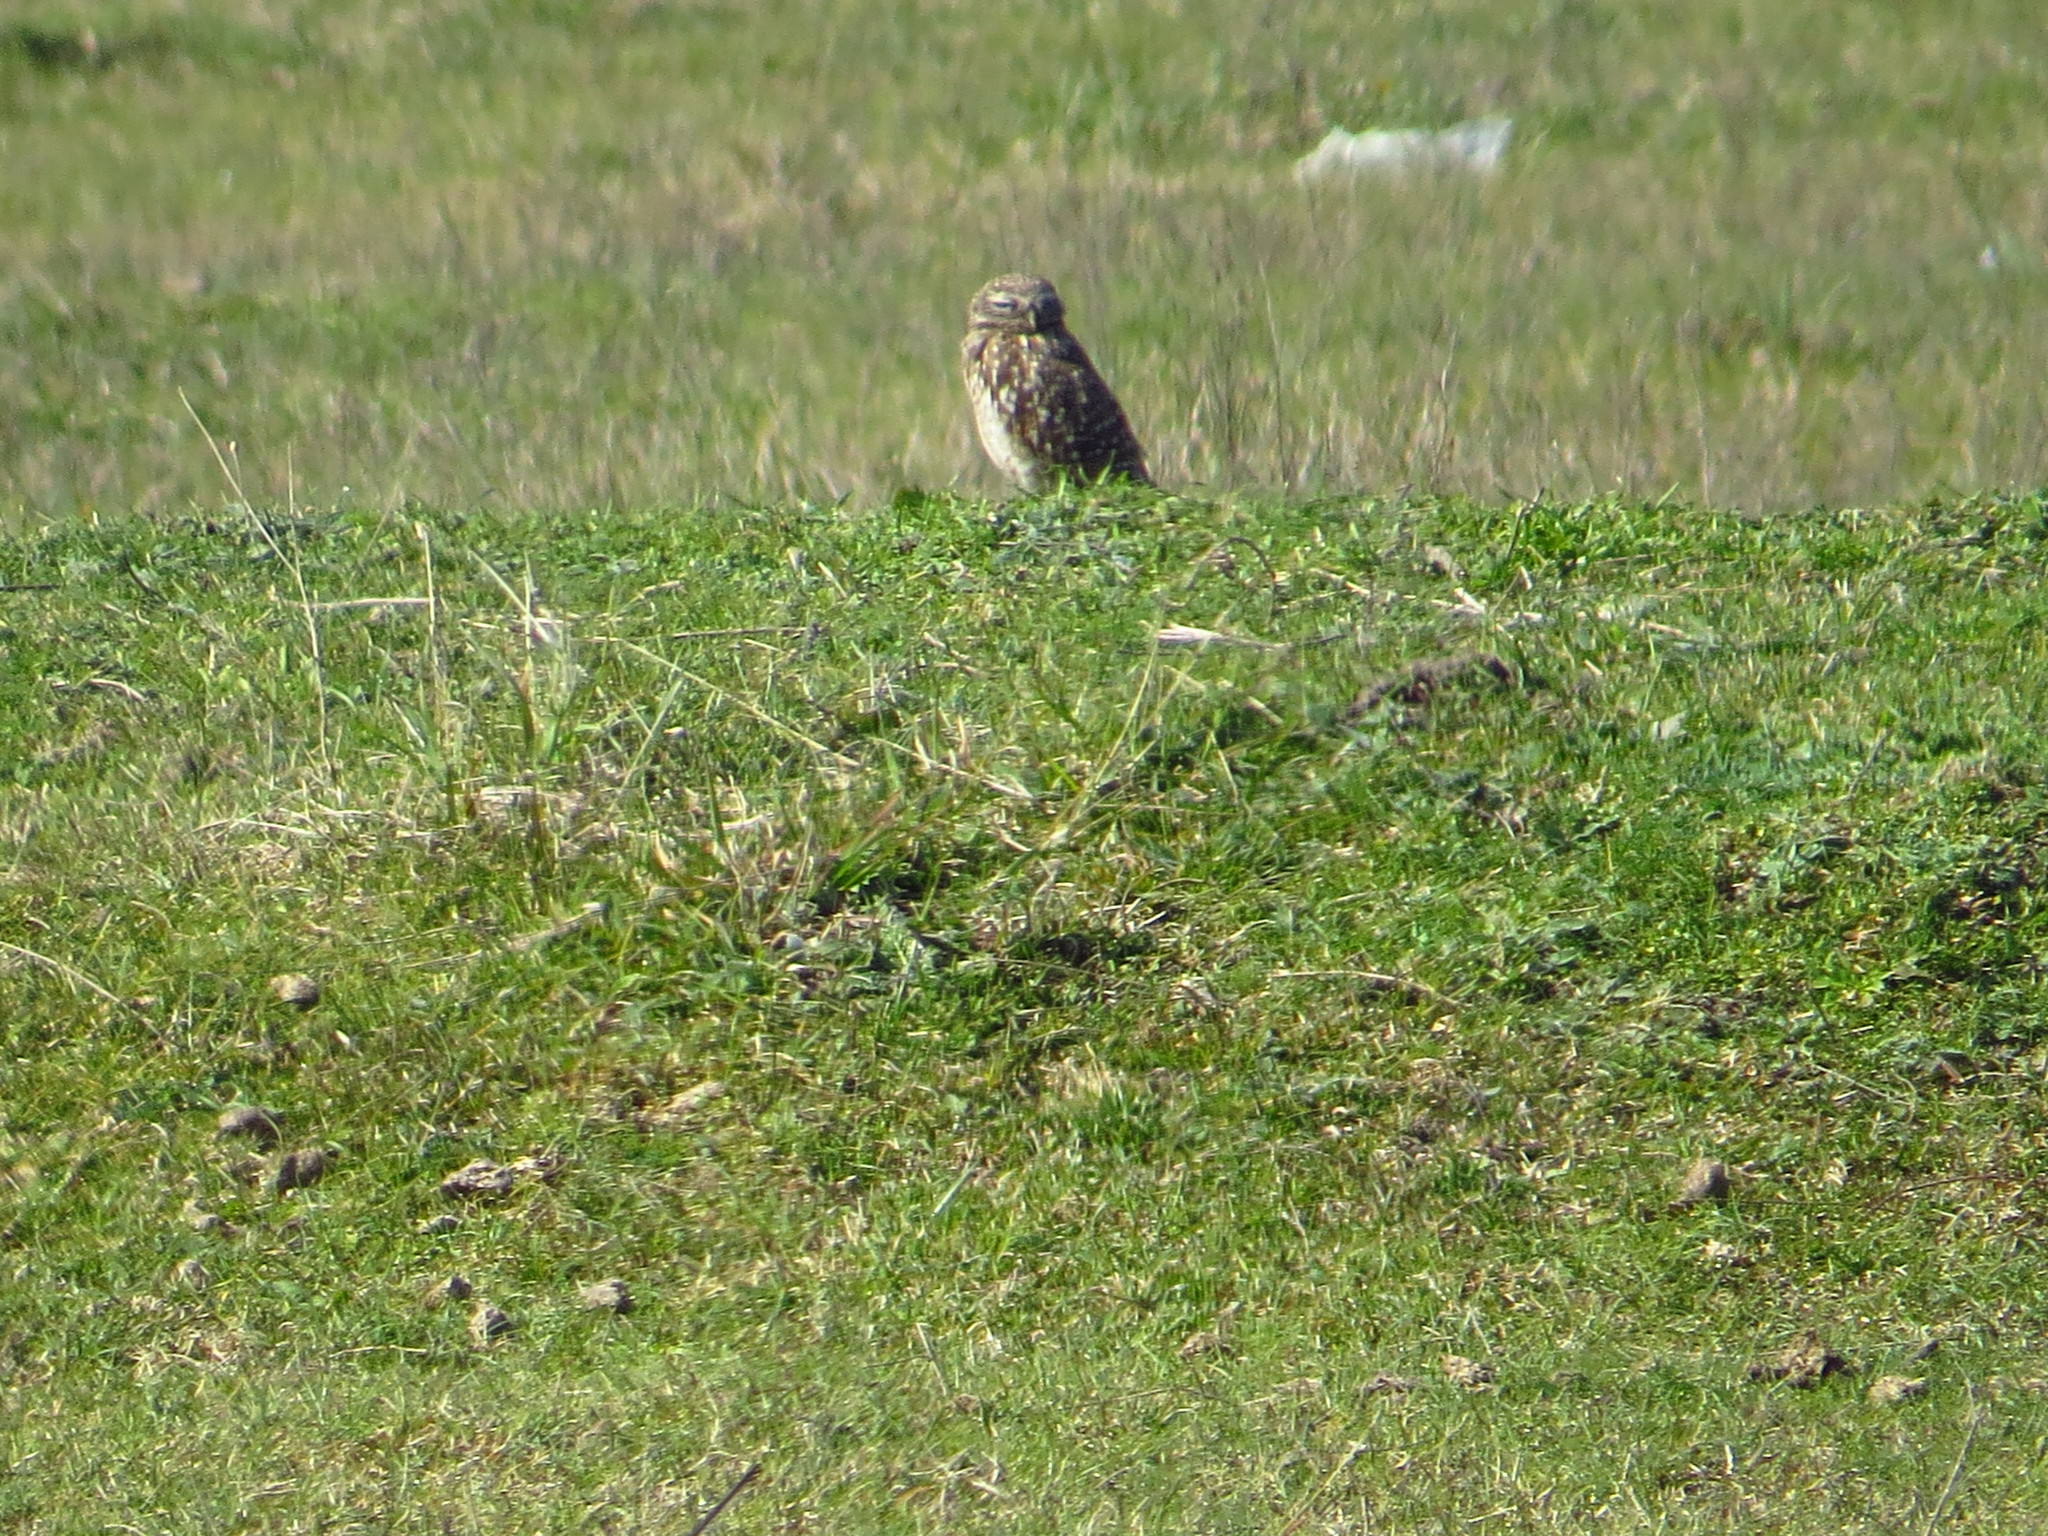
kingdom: Animalia
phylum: Chordata
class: Aves
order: Strigiformes
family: Strigidae
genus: Athene
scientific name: Athene cunicularia
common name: Burrowing owl
